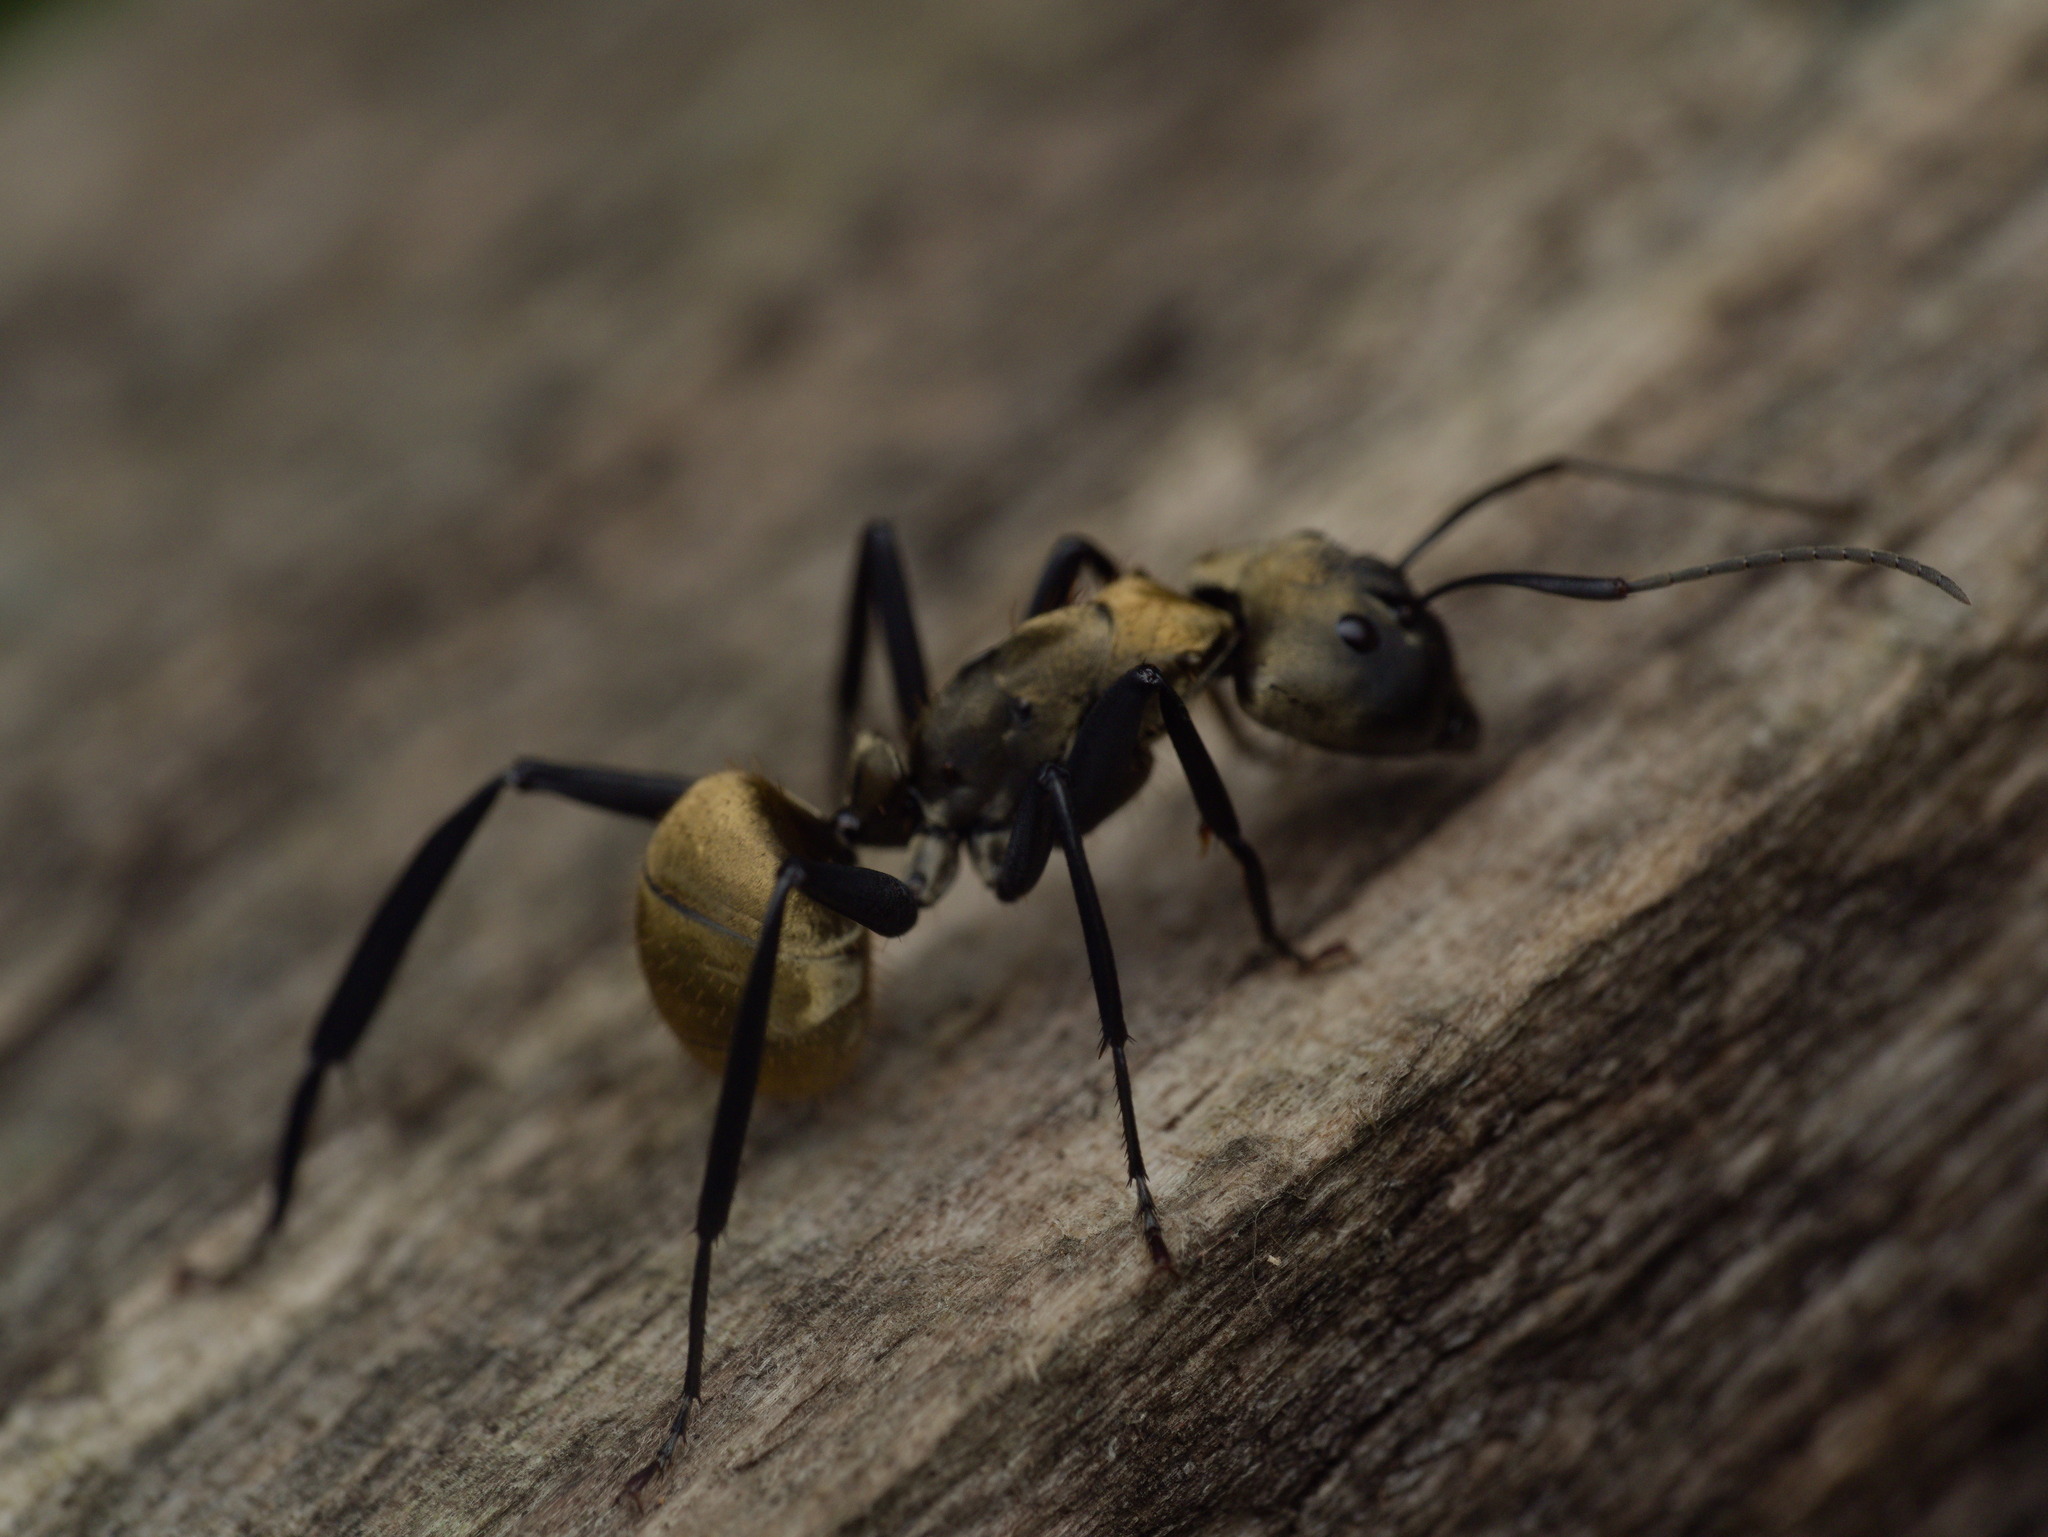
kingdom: Animalia
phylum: Arthropoda
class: Insecta
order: Hymenoptera
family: Formicidae
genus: Camponotus
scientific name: Camponotus sericeiventris
